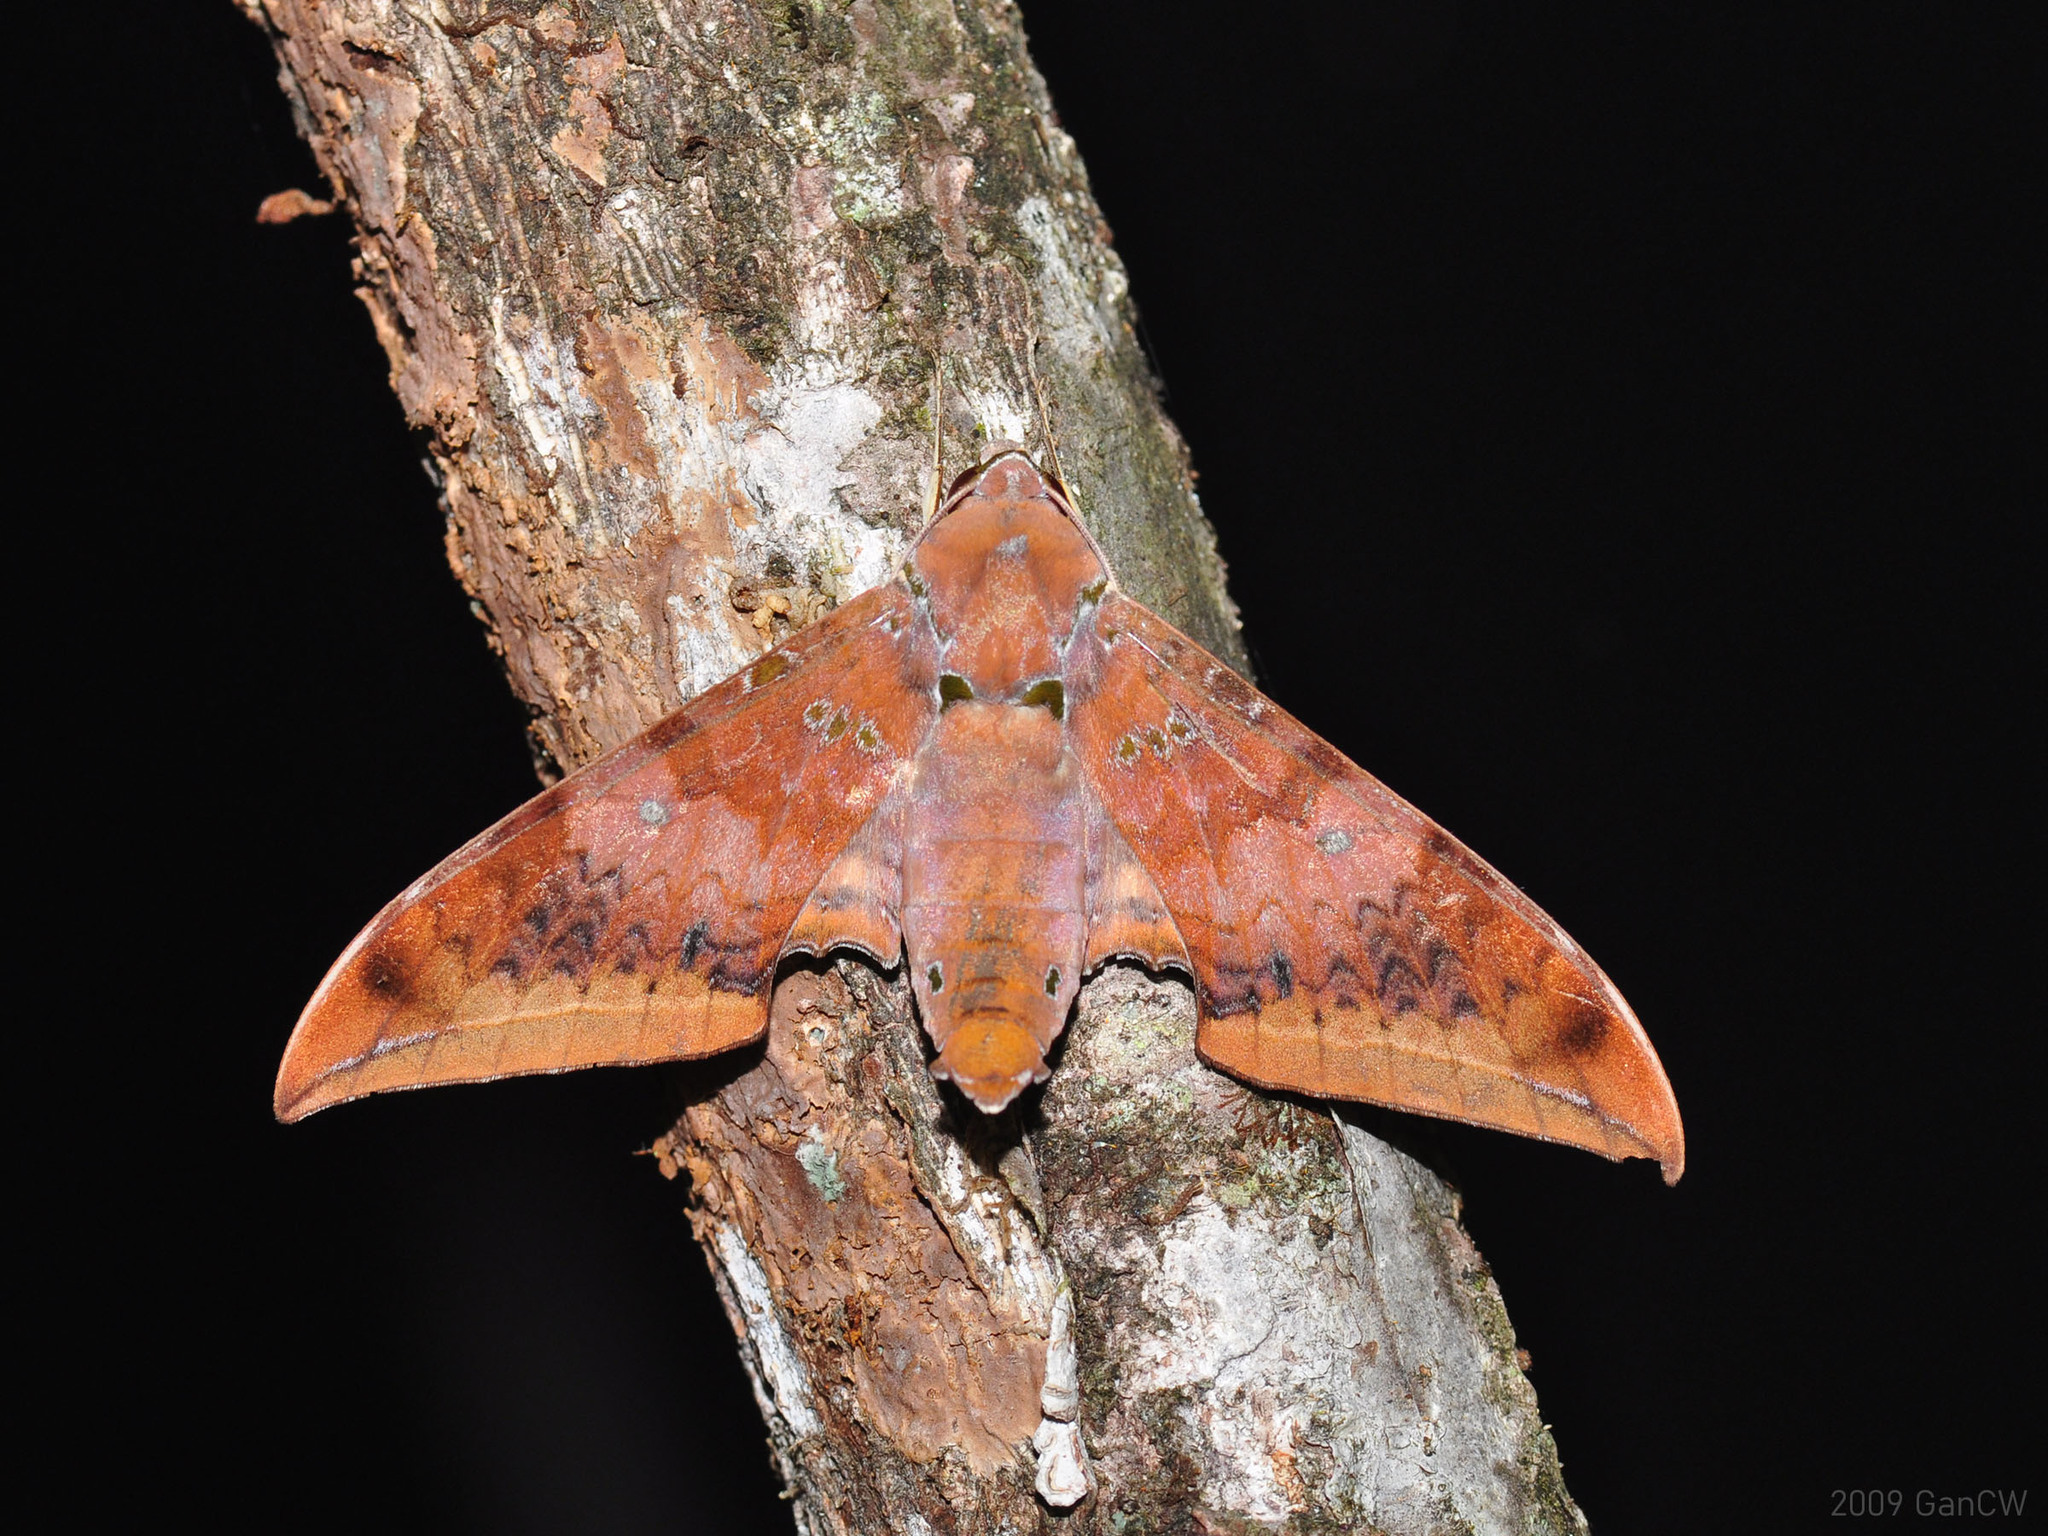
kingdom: Animalia
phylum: Arthropoda
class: Insecta
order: Lepidoptera
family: Sphingidae
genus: Ambulyx
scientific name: Ambulyx moorei
